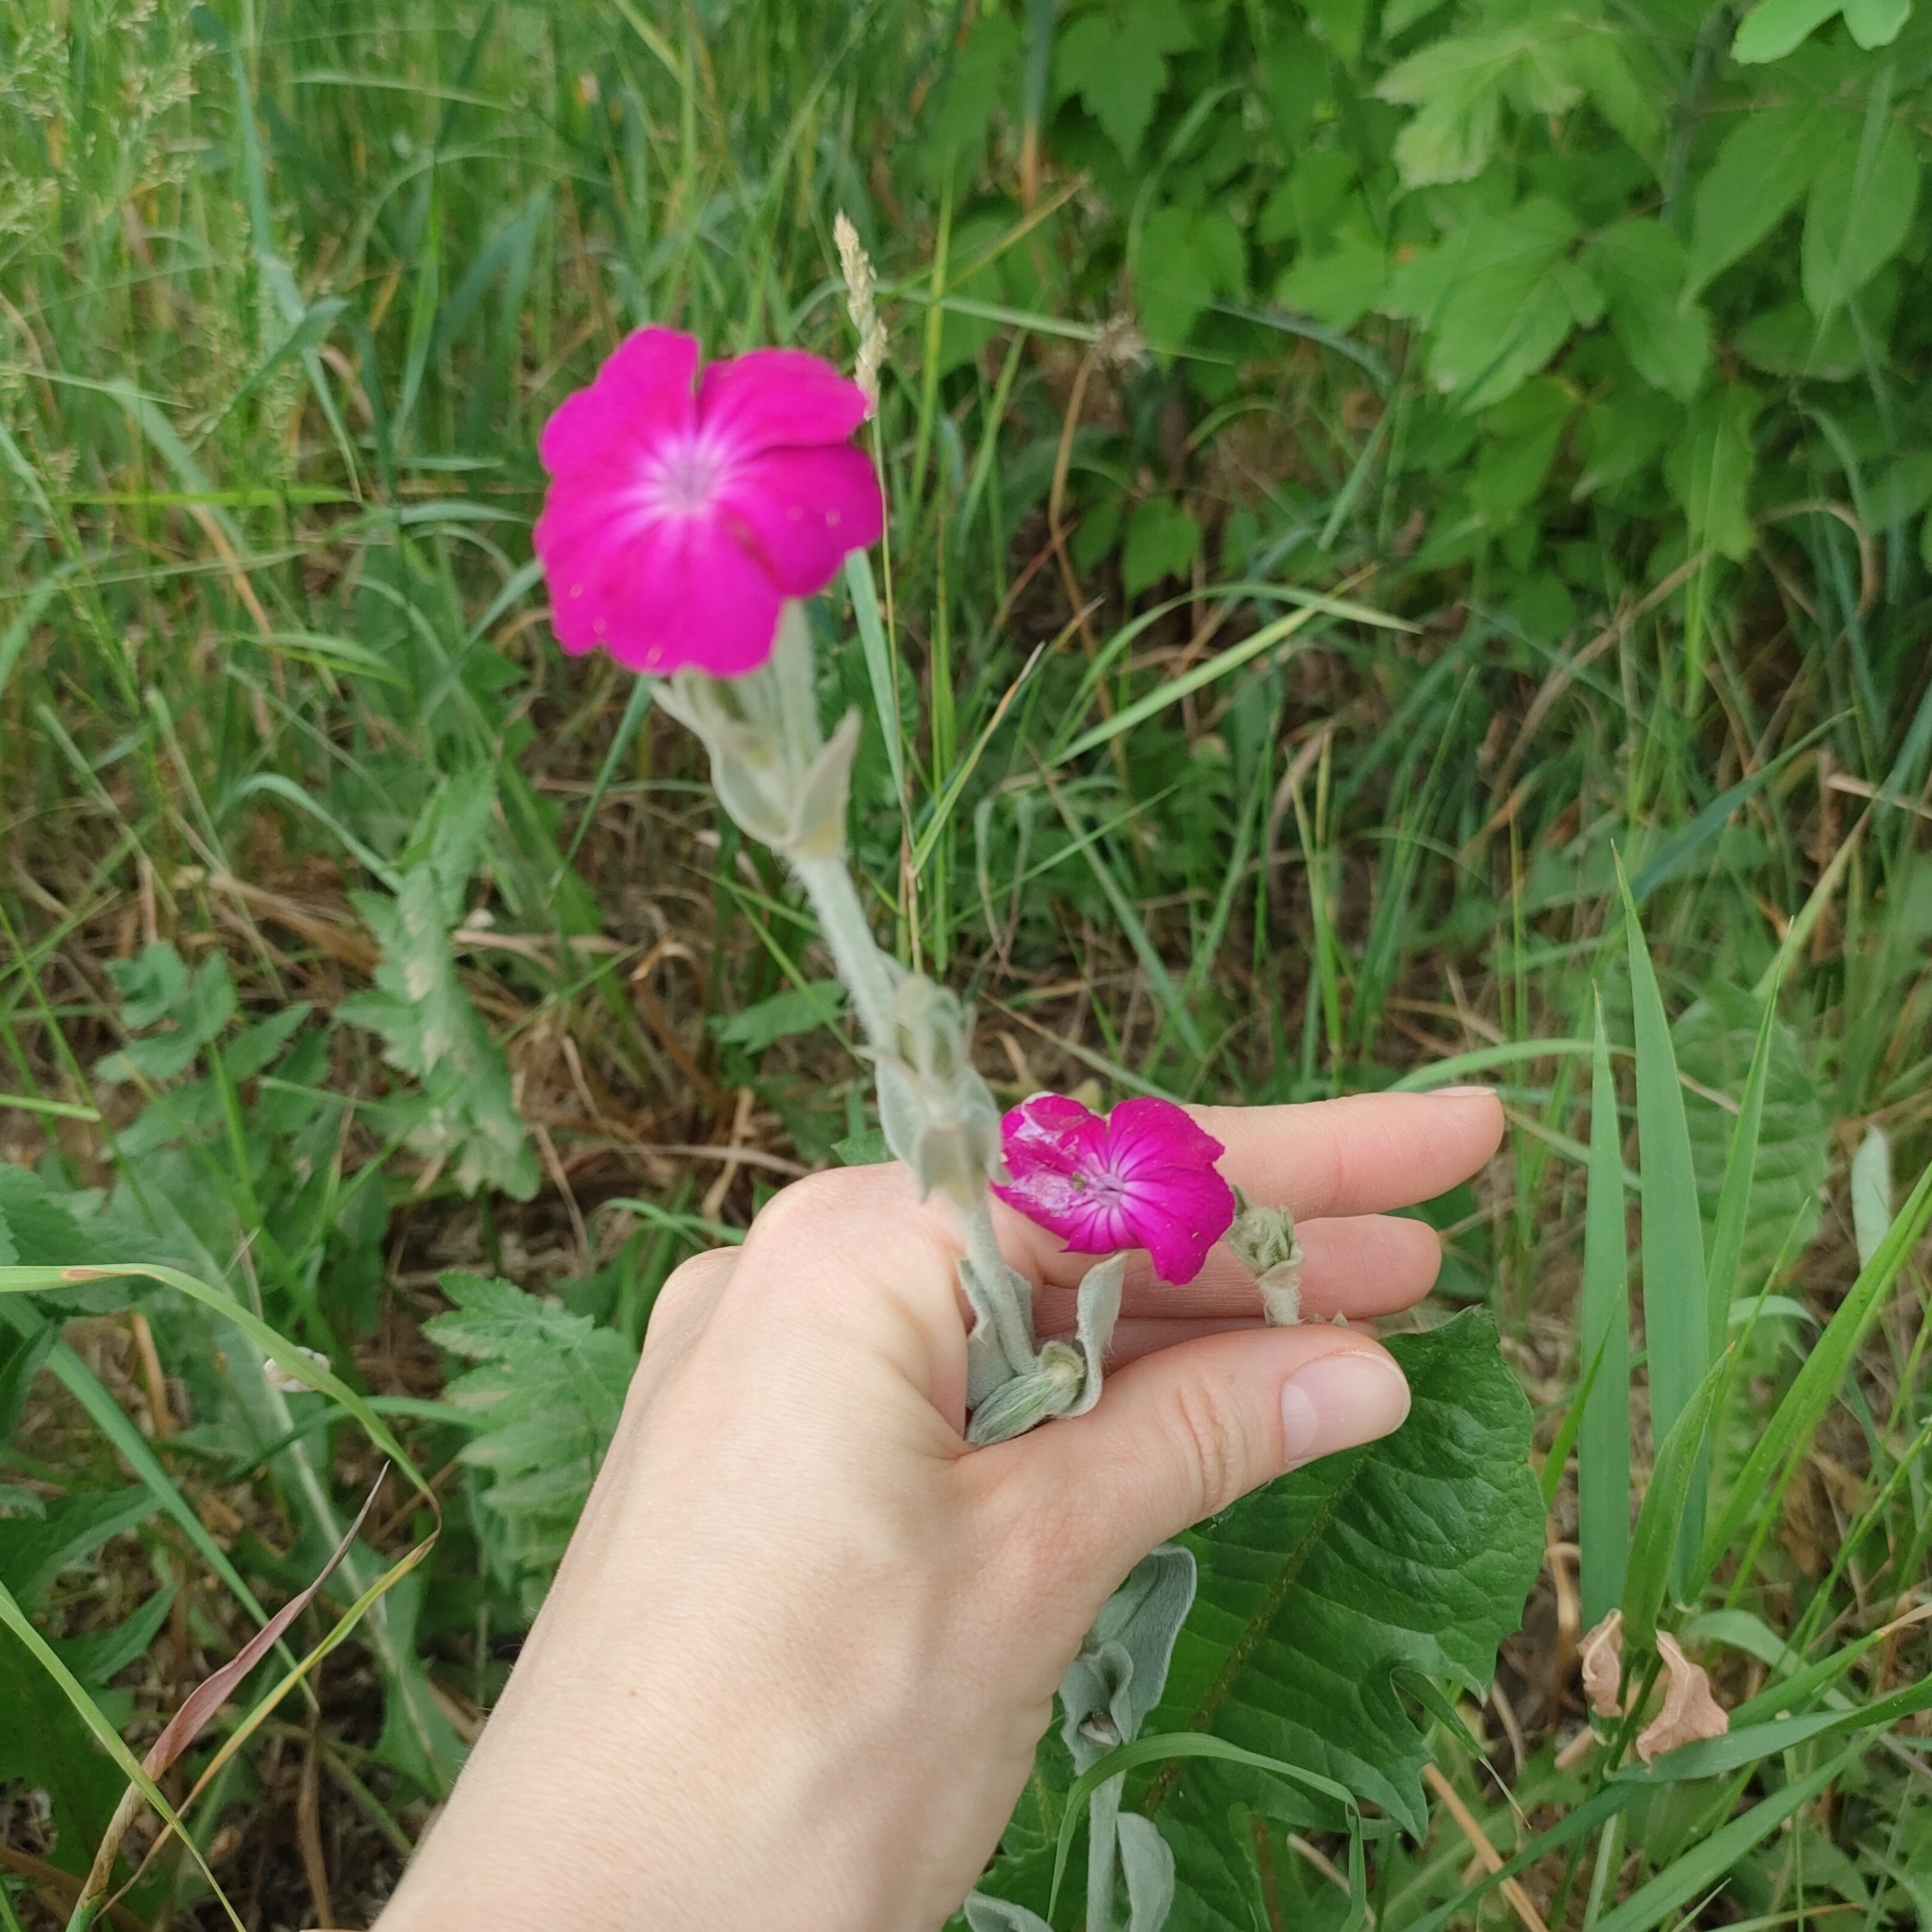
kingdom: Plantae
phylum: Tracheophyta
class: Magnoliopsida
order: Caryophyllales
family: Caryophyllaceae
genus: Silene
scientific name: Silene coronaria
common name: Rose campion
